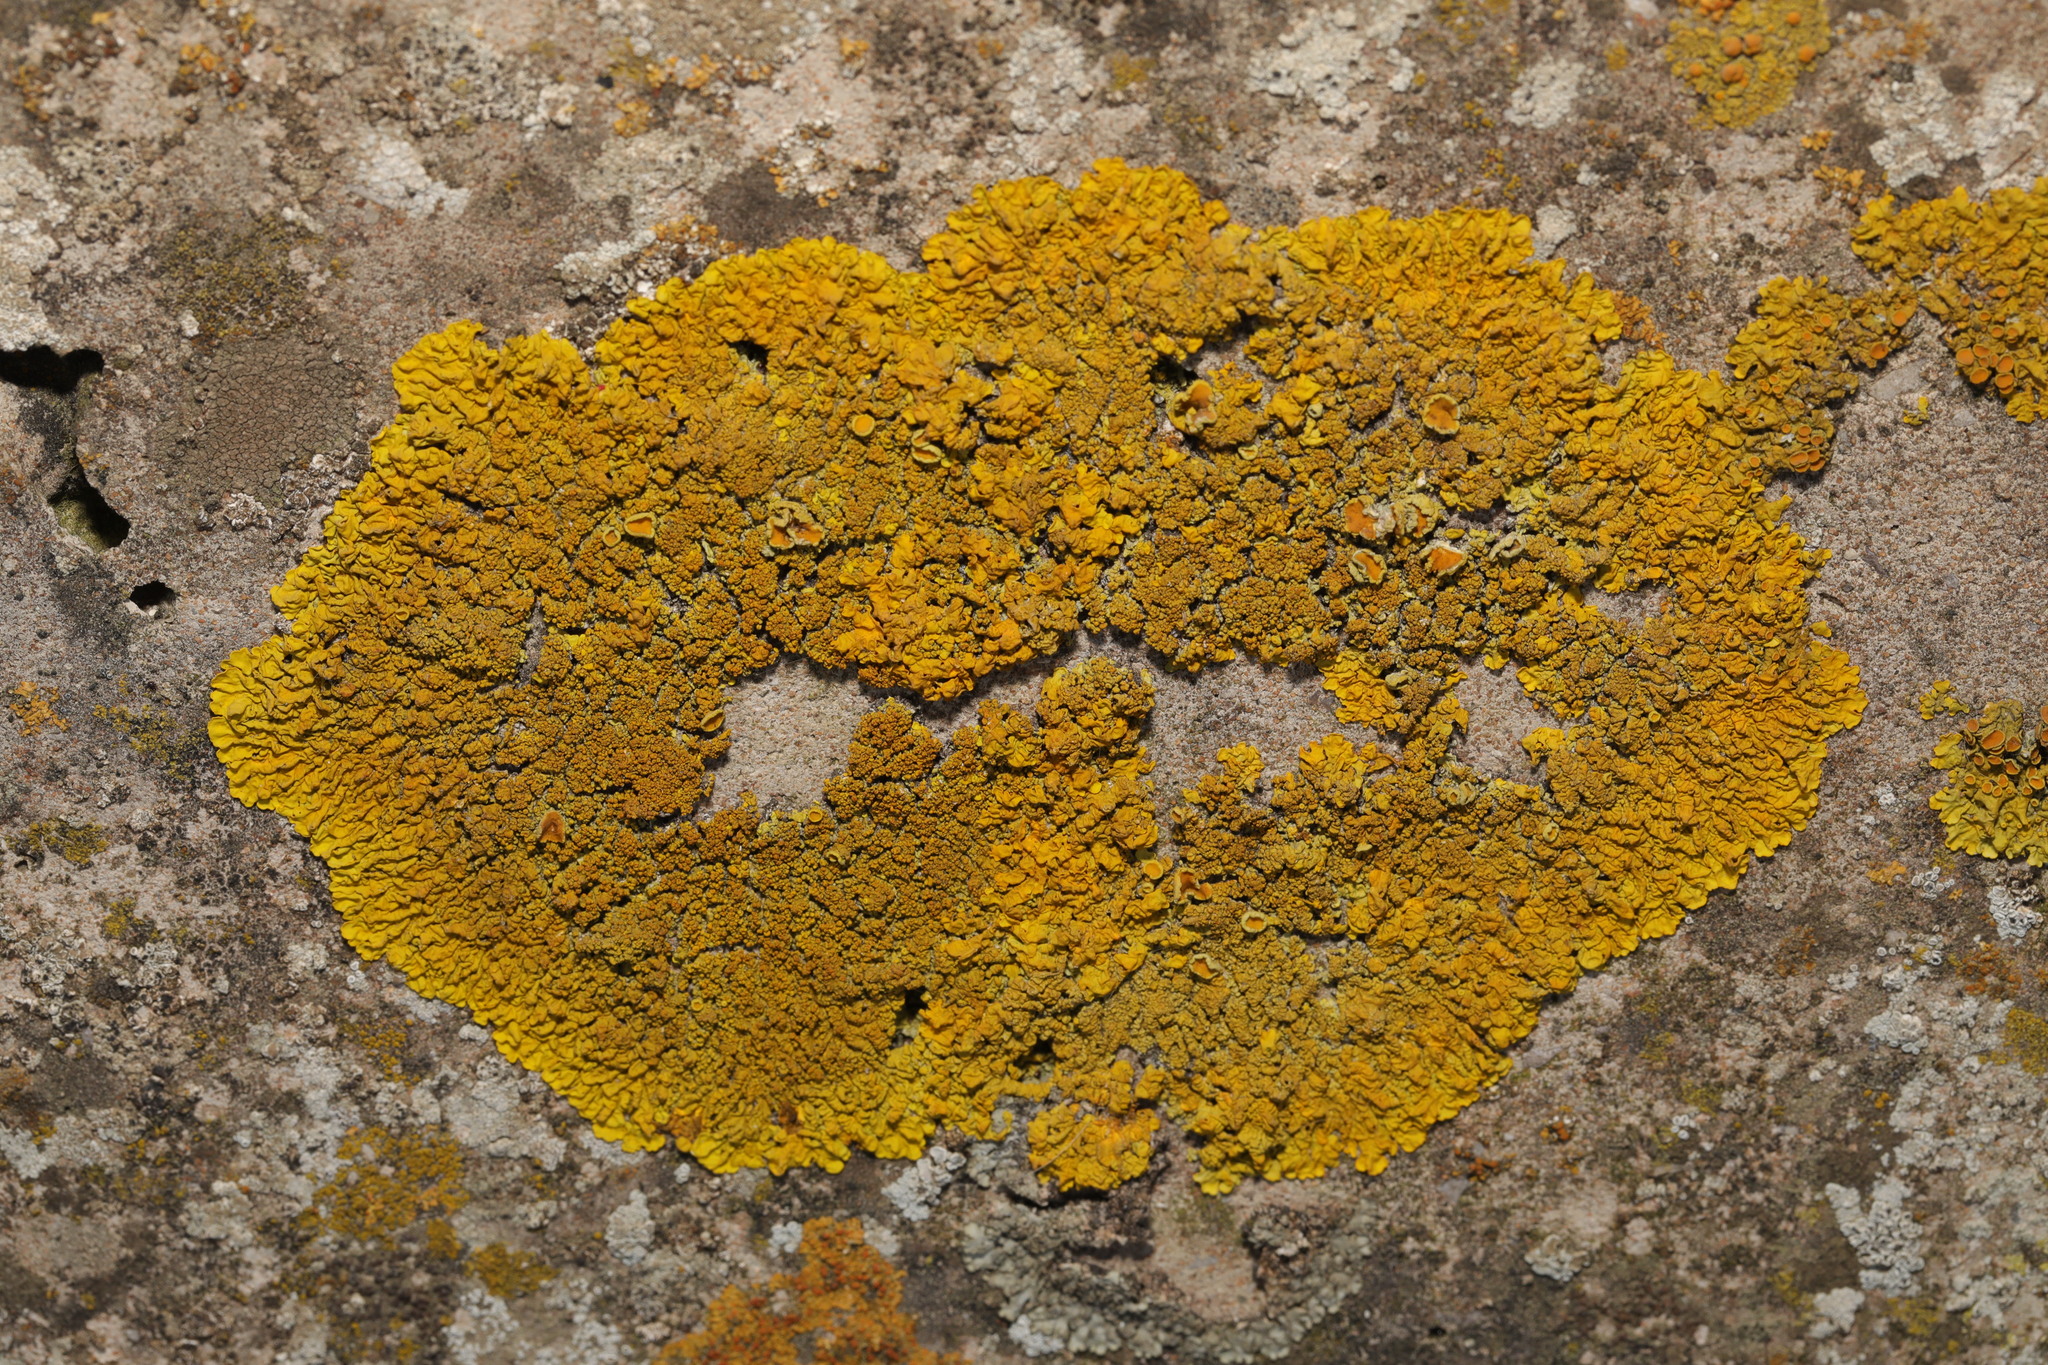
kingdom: Fungi
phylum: Ascomycota
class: Lecanoromycetes
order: Teloschistales
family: Teloschistaceae
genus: Xanthoria
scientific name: Xanthoria calcicola
